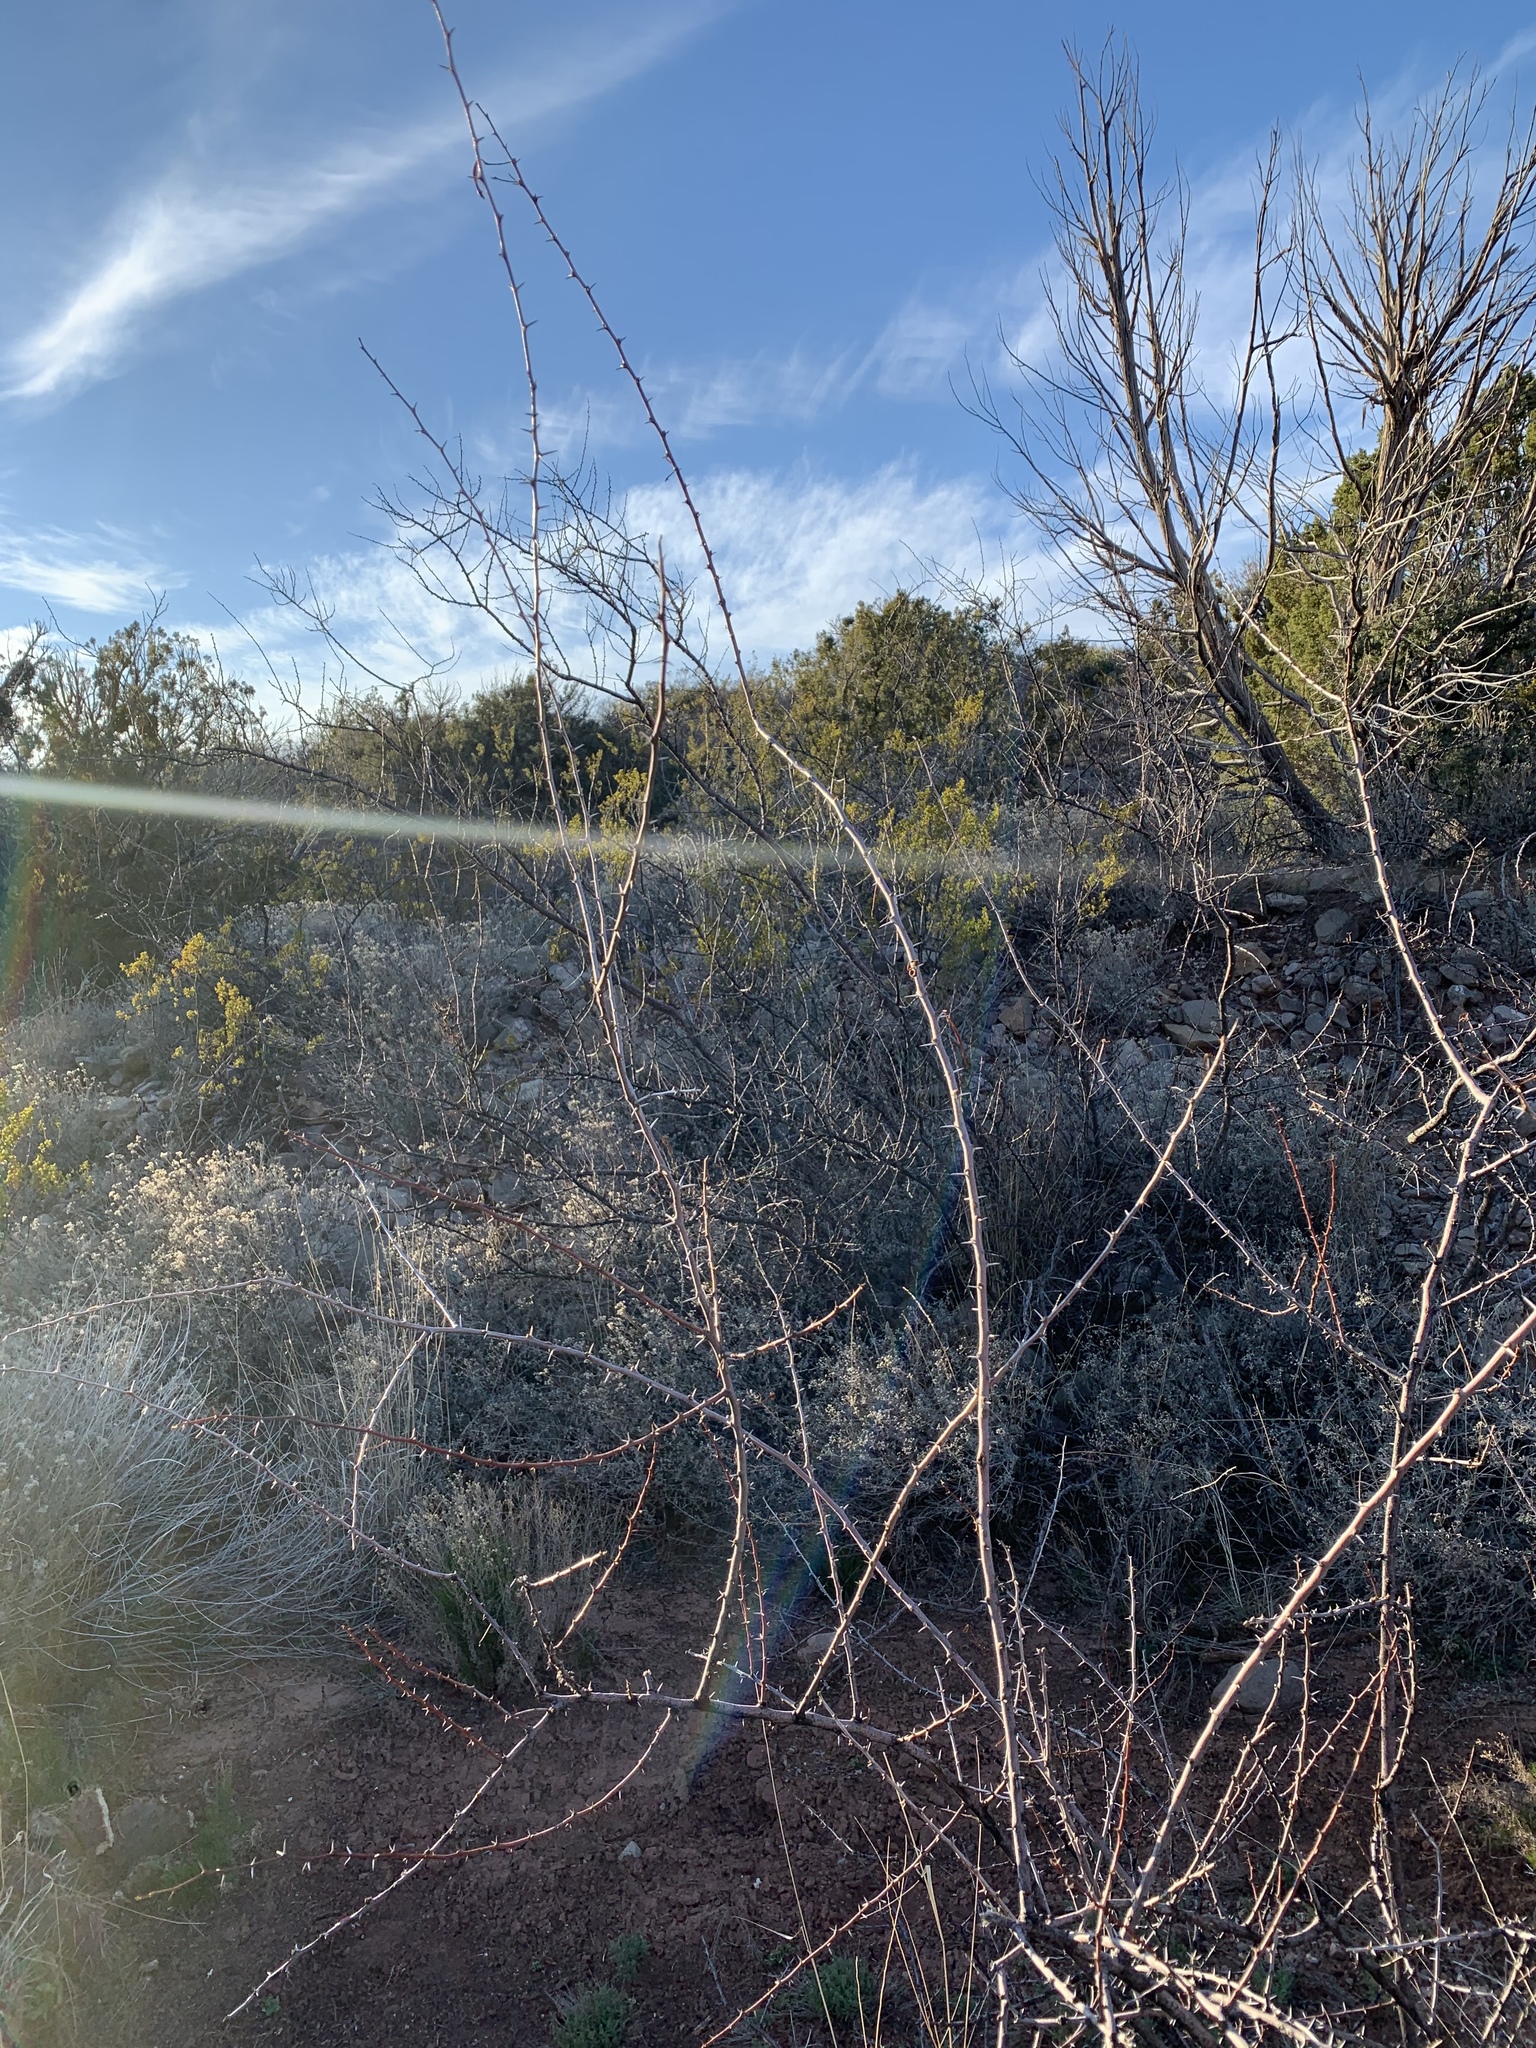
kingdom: Plantae
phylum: Tracheophyta
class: Magnoliopsida
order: Fabales
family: Fabaceae
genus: Vachellia
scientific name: Vachellia constricta
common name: Mescat acacia
